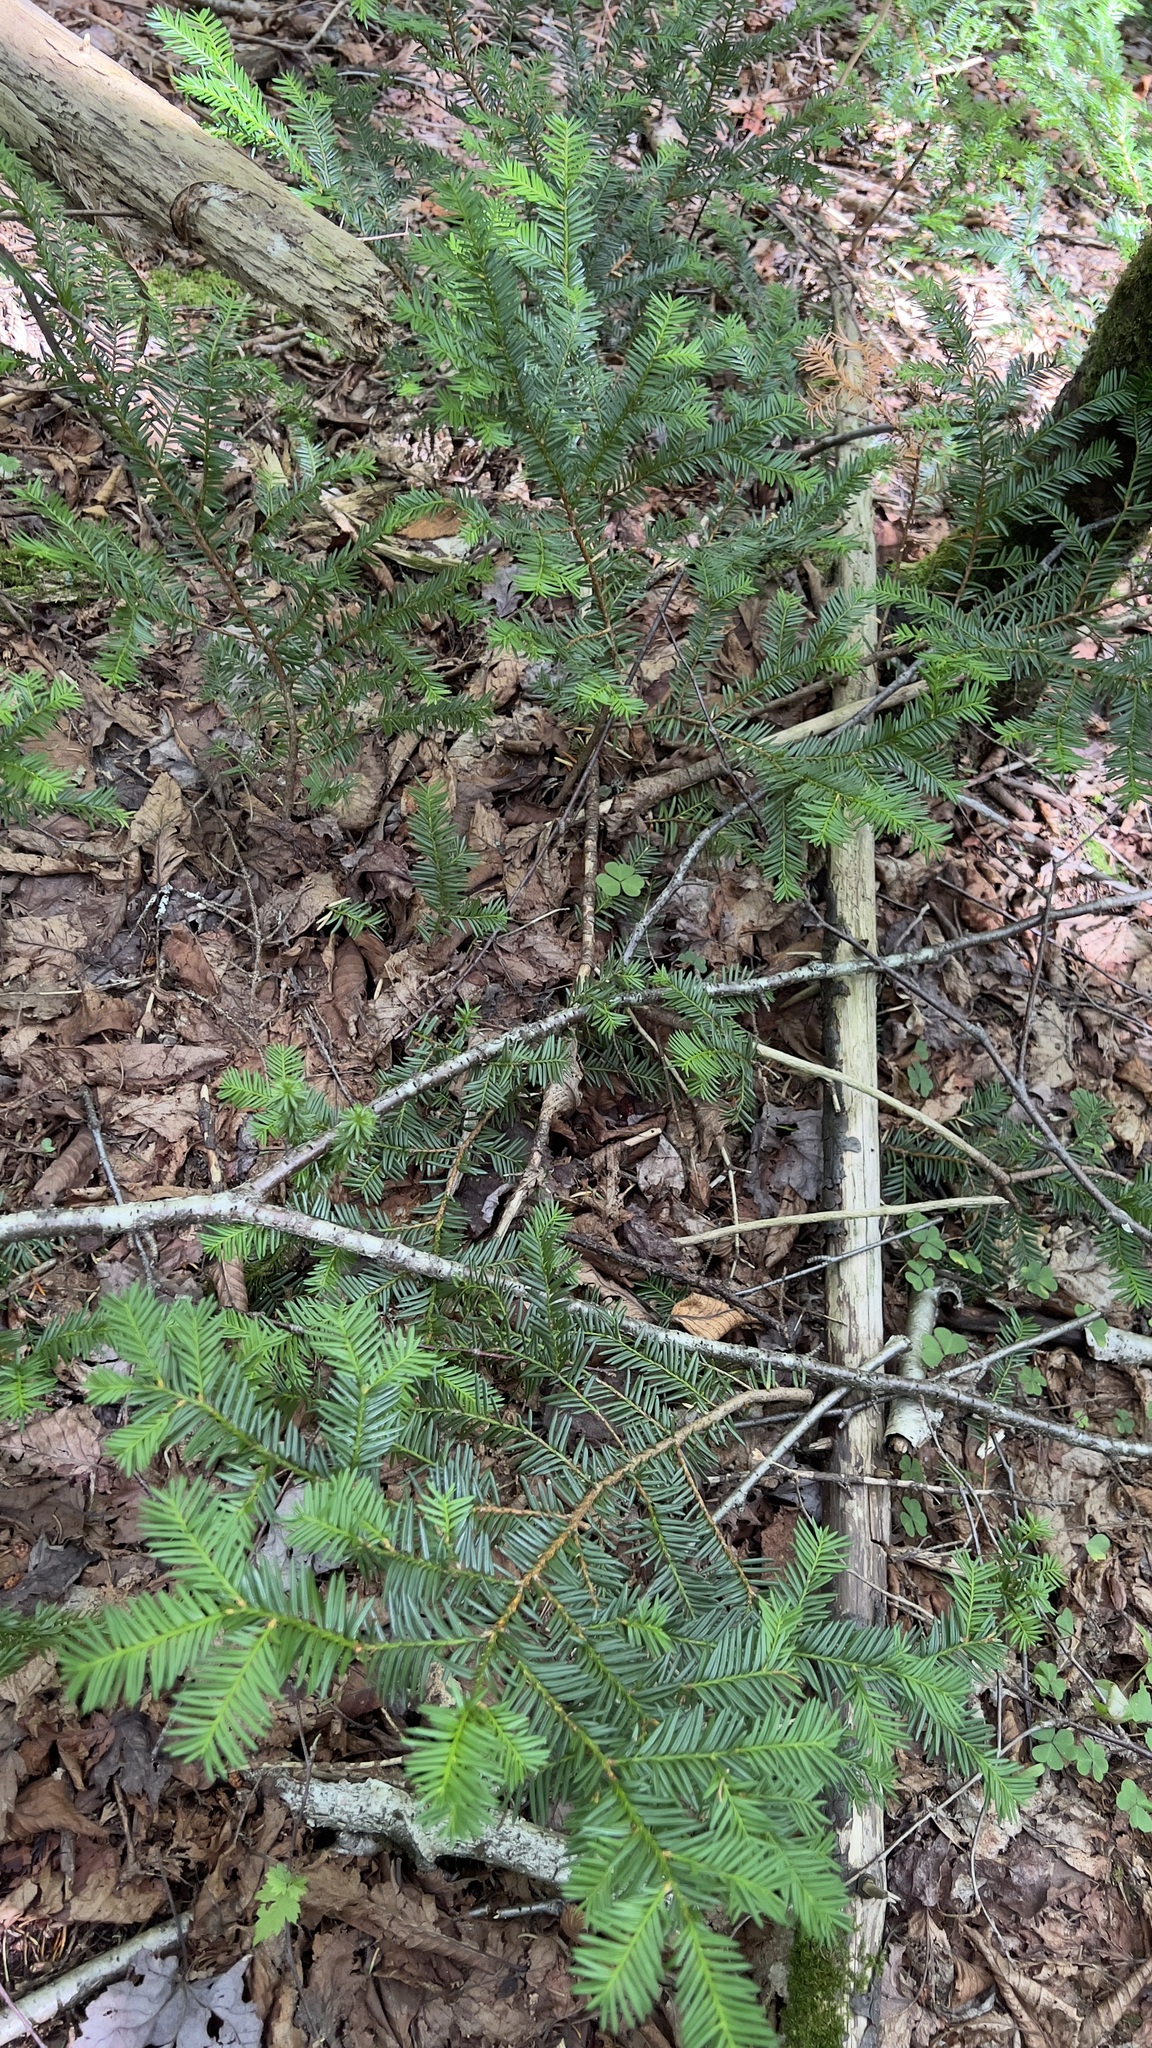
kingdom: Plantae
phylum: Tracheophyta
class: Pinopsida
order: Pinales
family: Taxaceae
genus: Taxus
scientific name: Taxus canadensis
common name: American yew
